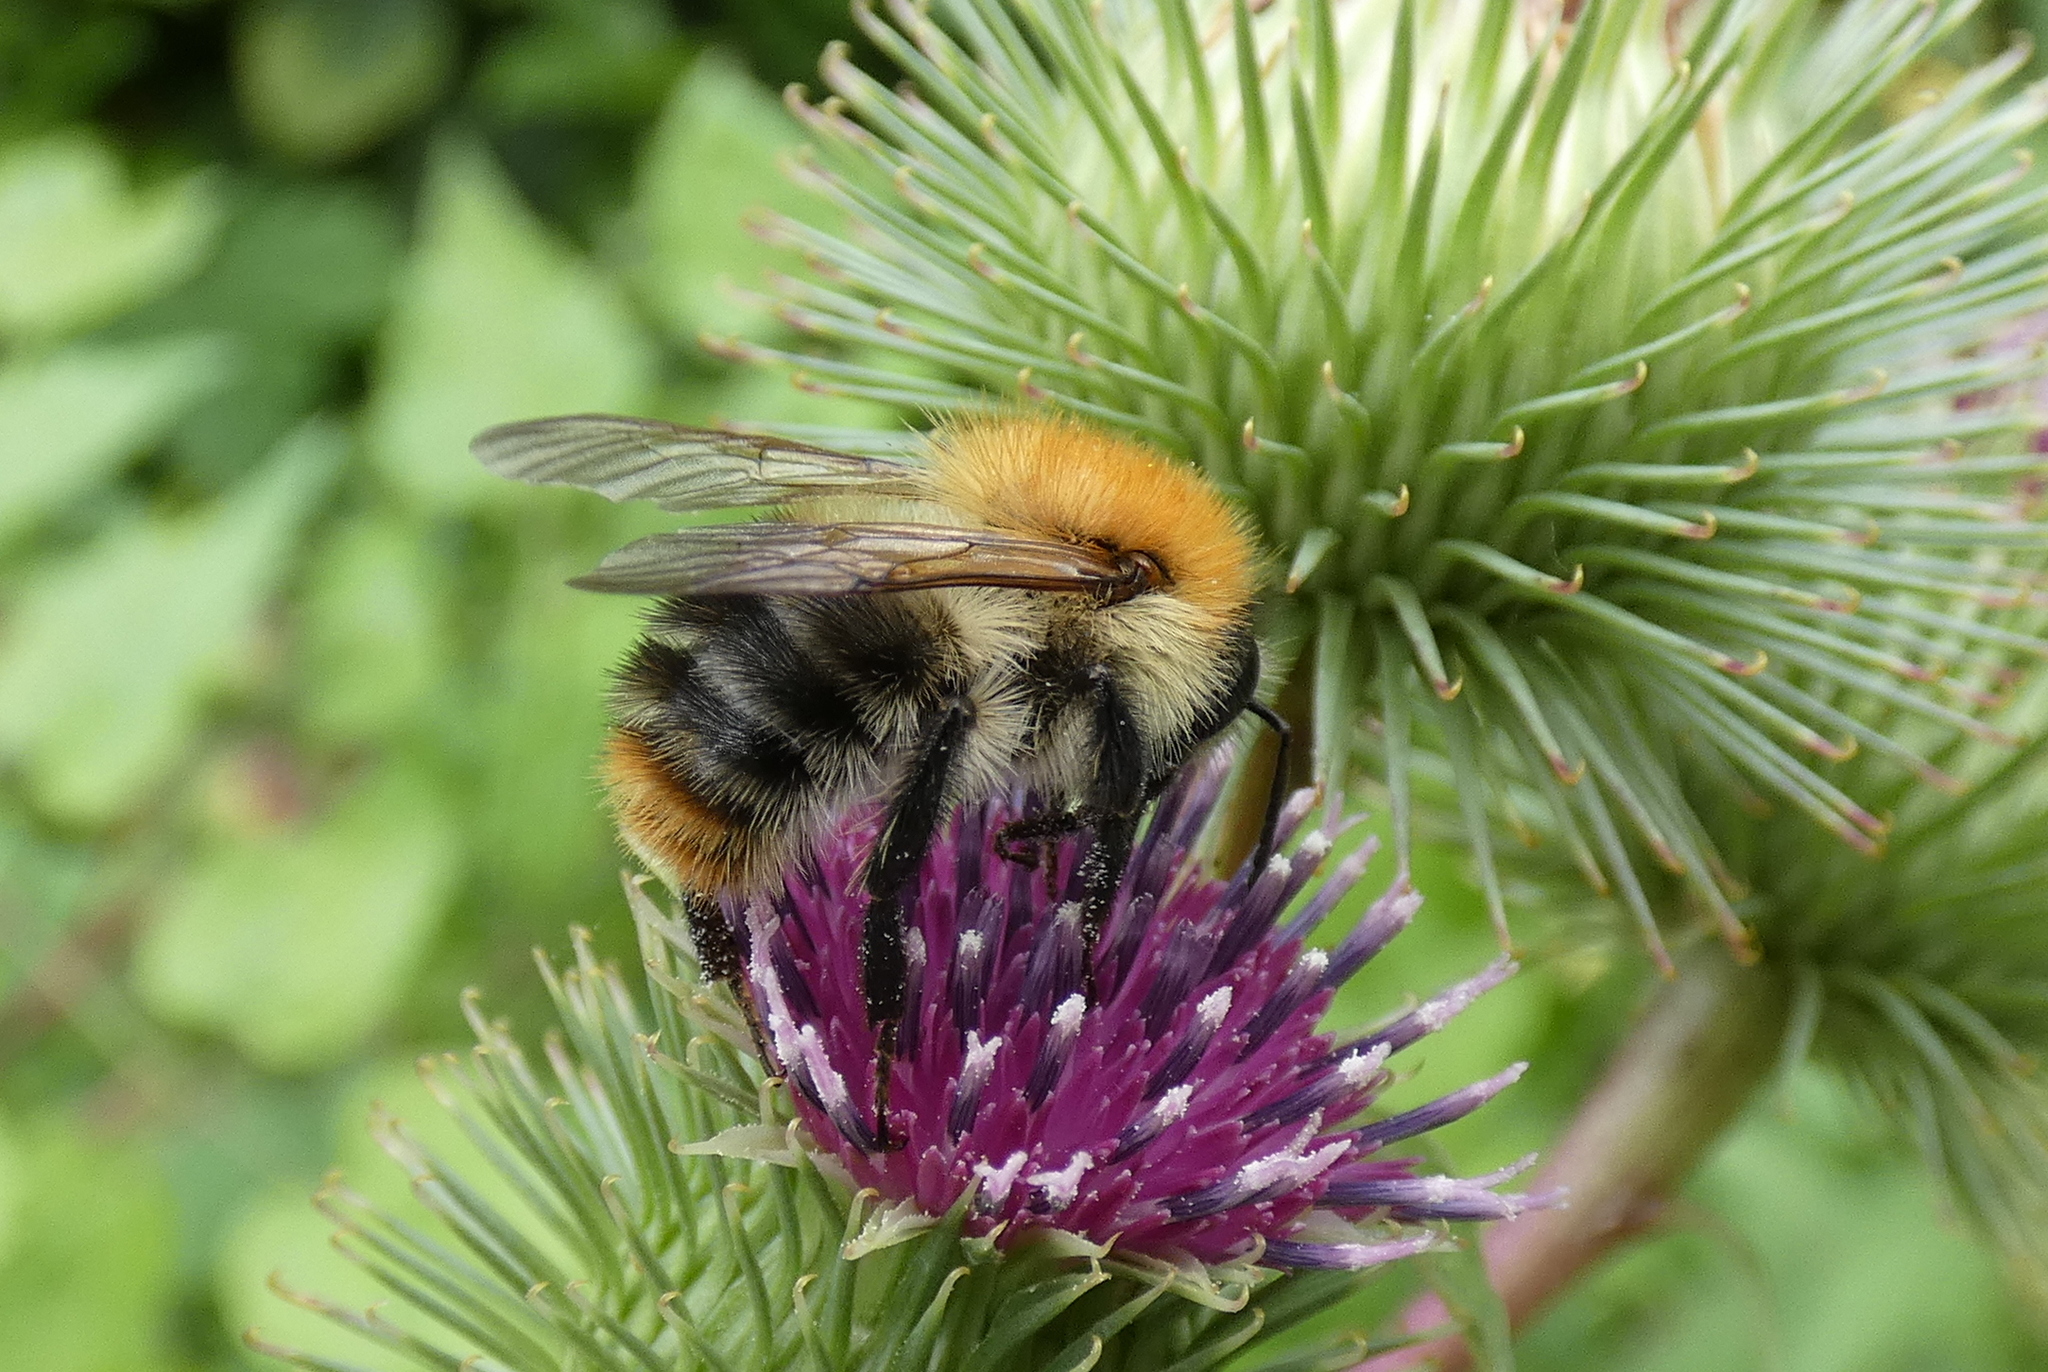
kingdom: Animalia
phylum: Arthropoda
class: Insecta
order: Hymenoptera
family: Apidae
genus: Bombus
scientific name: Bombus pascuorum
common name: Common carder bee
